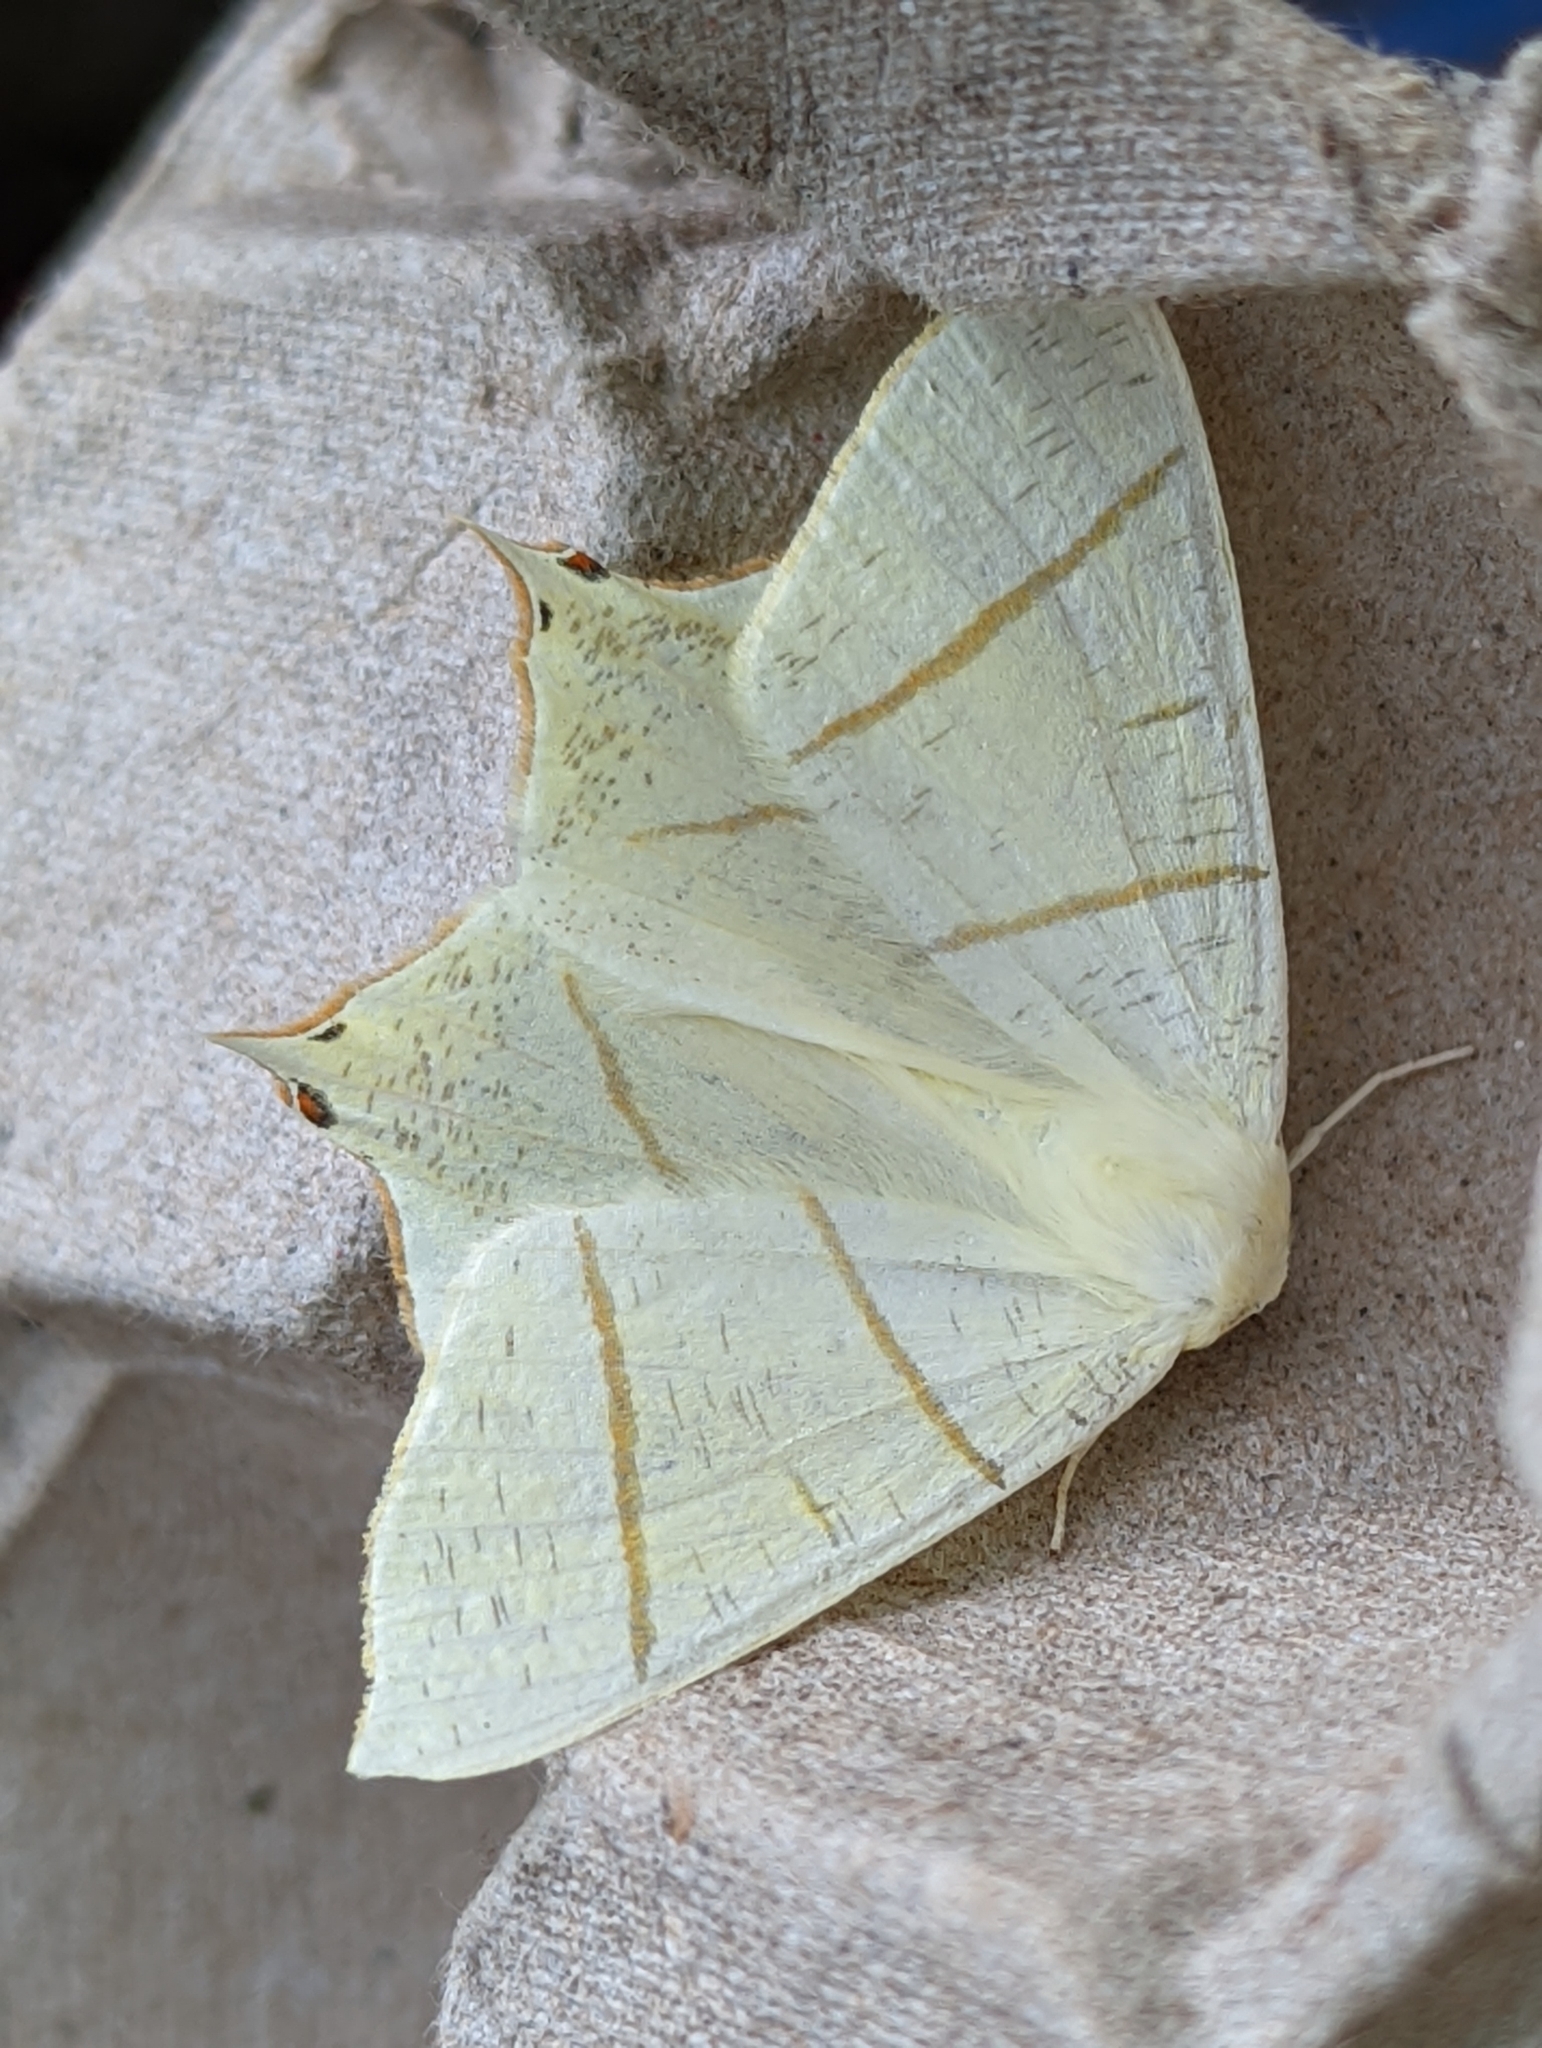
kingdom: Animalia
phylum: Arthropoda
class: Insecta
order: Lepidoptera
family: Geometridae
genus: Ourapteryx
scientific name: Ourapteryx sambucaria
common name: Swallow-tailed moth
